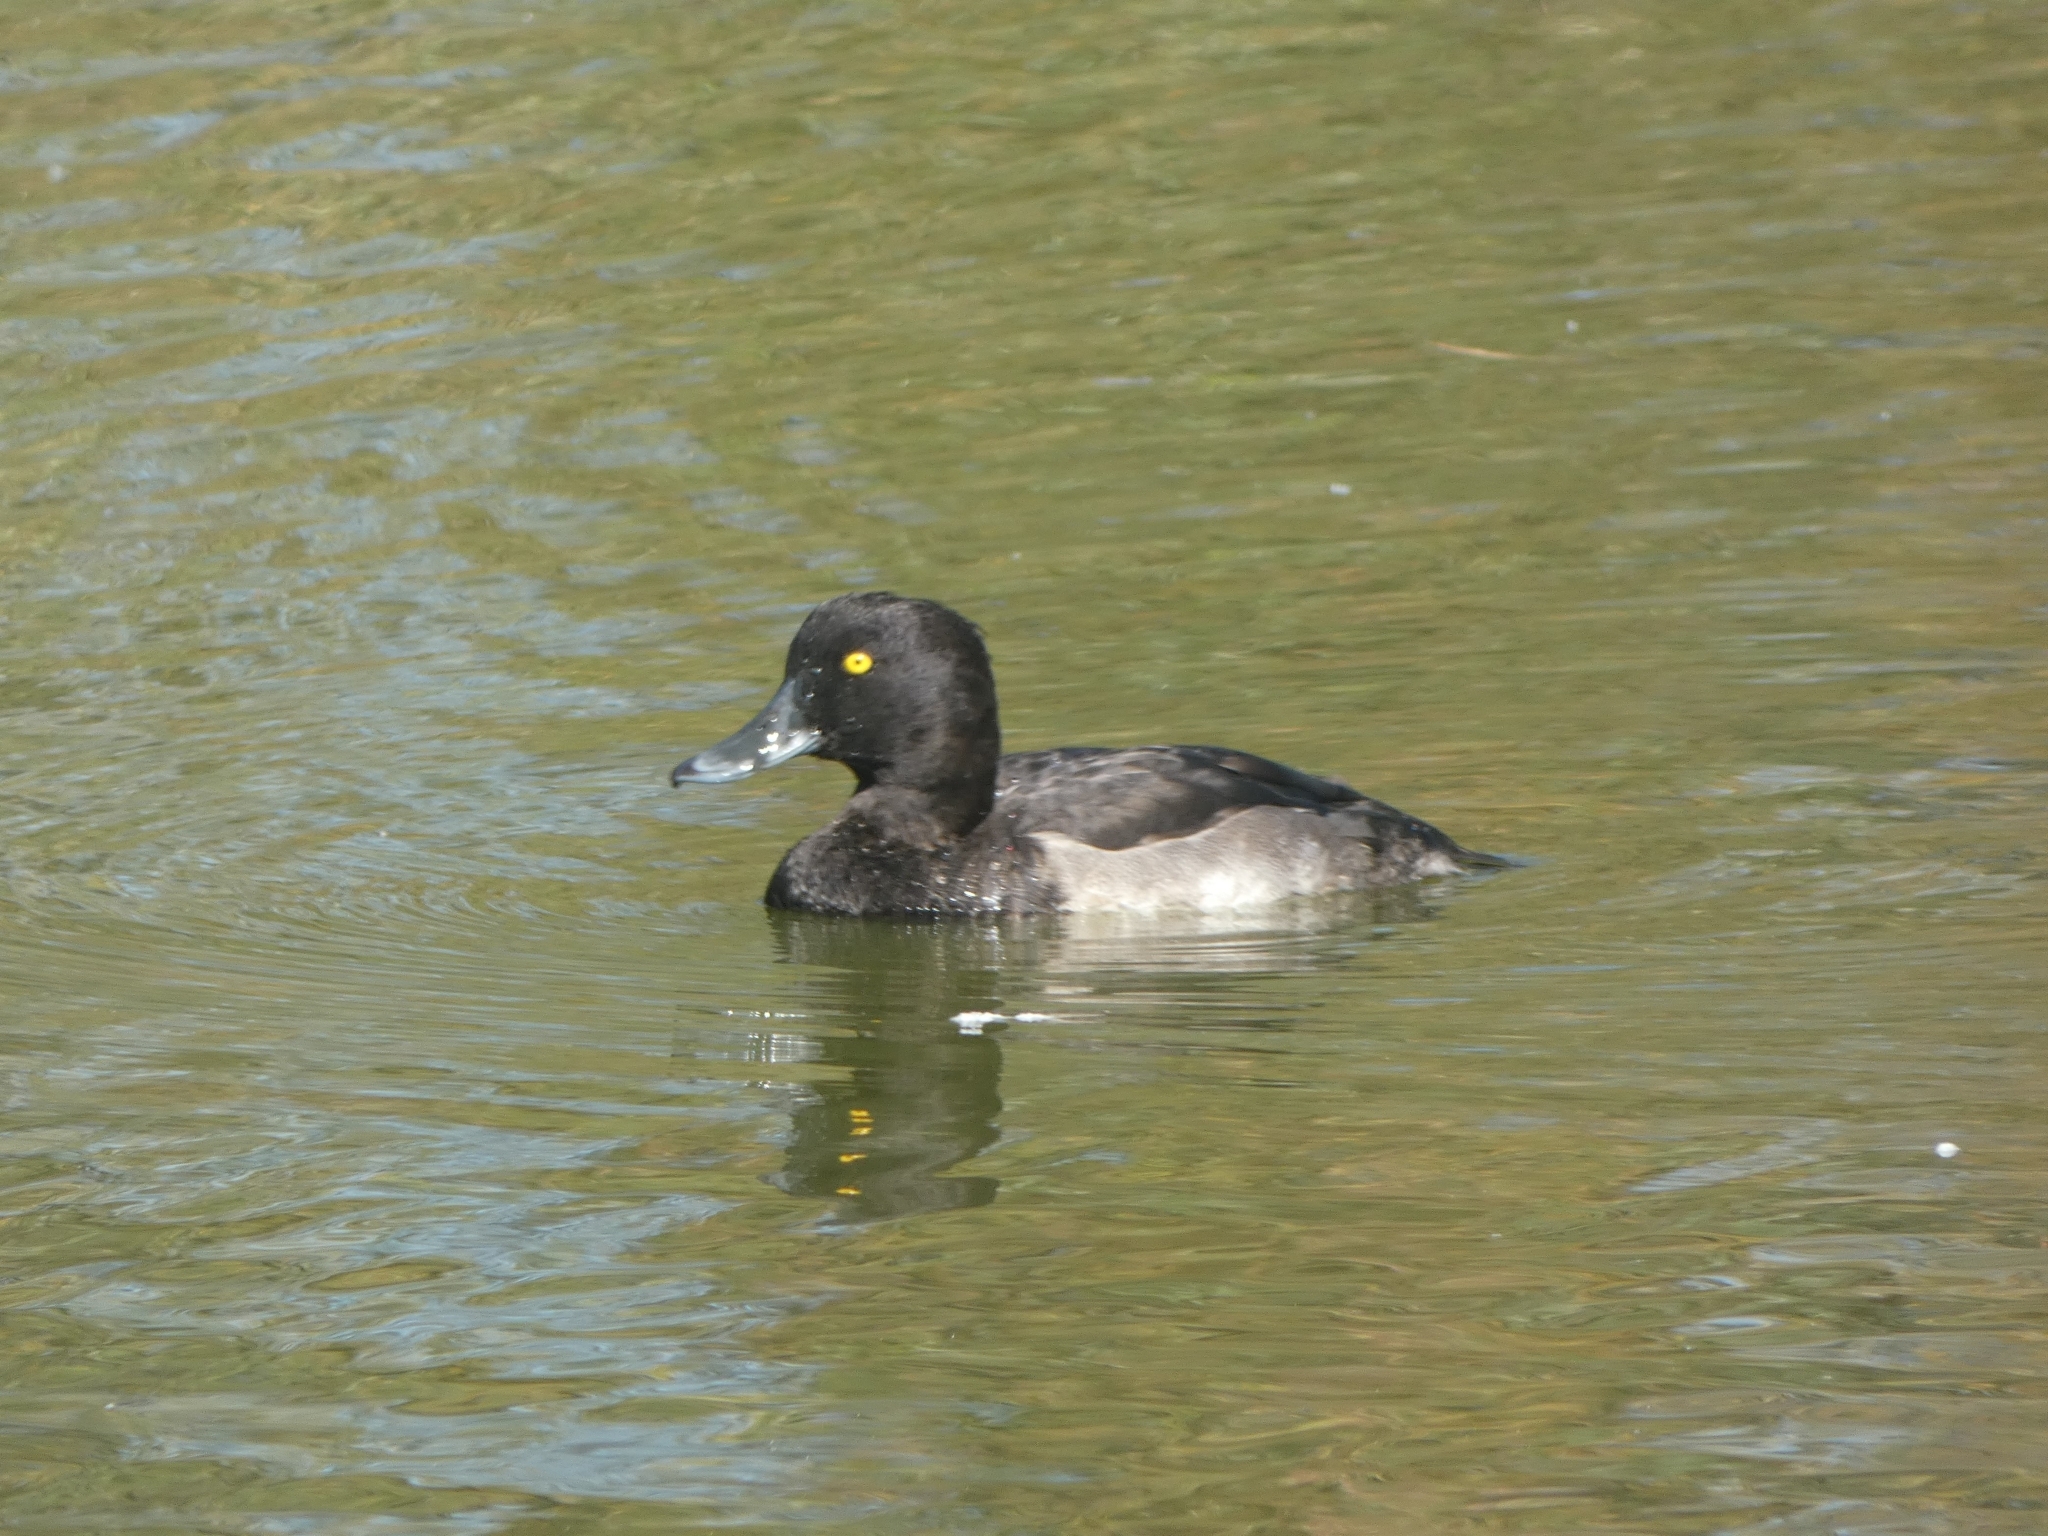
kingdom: Animalia
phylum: Chordata
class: Aves
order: Anseriformes
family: Anatidae
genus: Aythya
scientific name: Aythya fuligula
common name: Tufted duck
